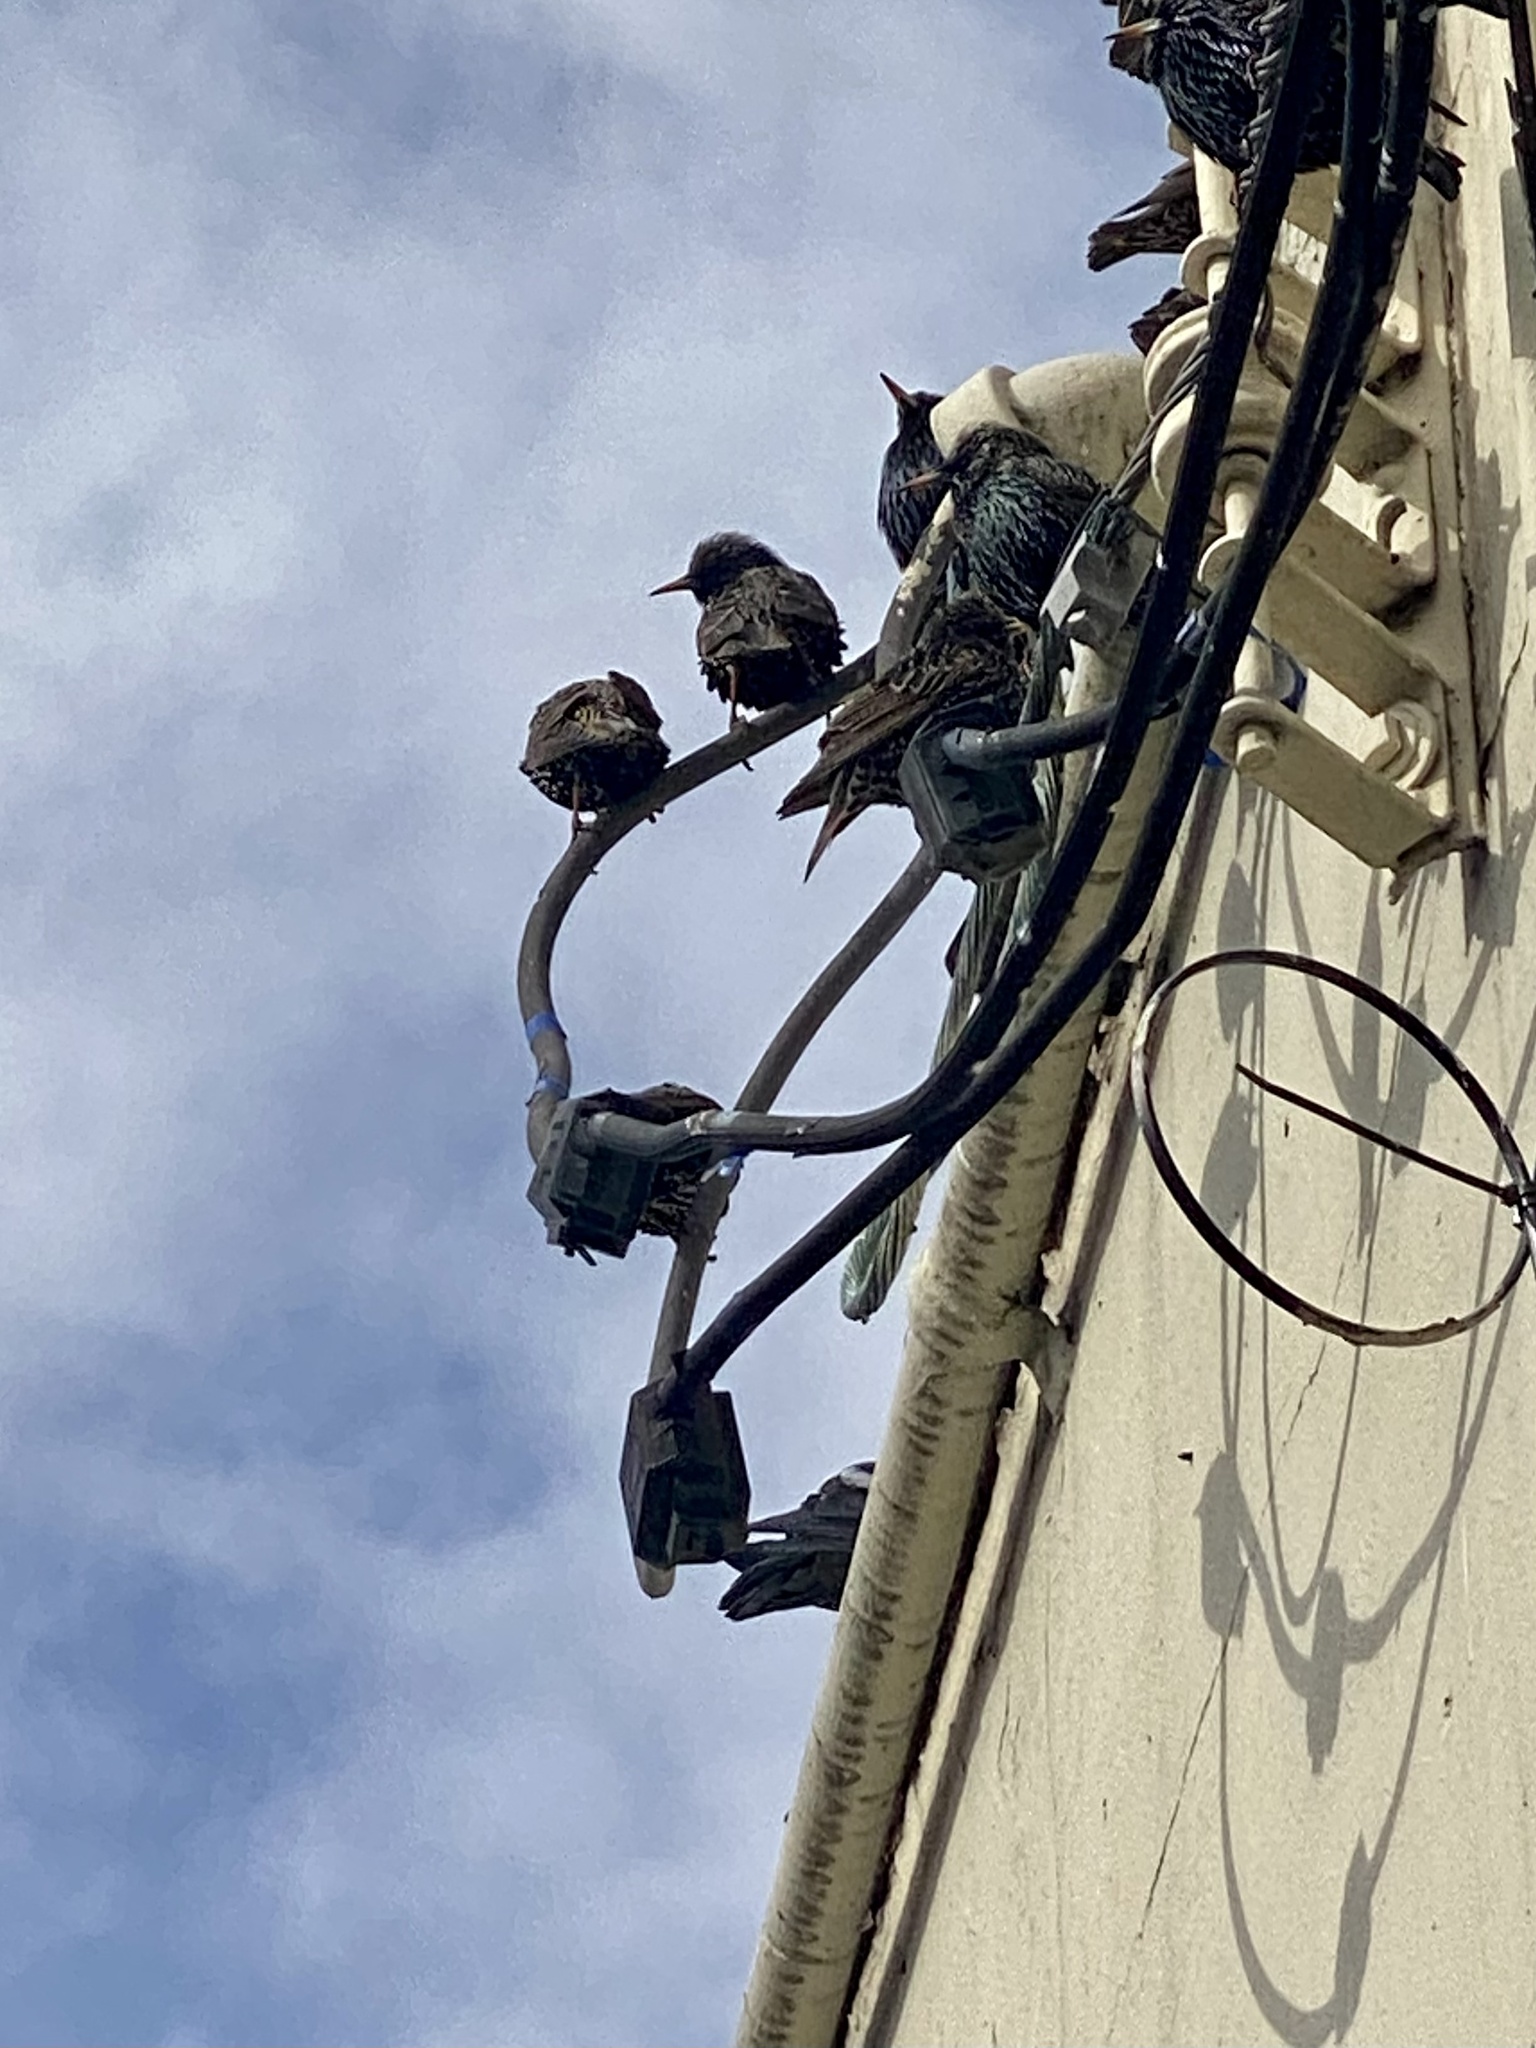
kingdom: Animalia
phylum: Chordata
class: Aves
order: Passeriformes
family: Sturnidae
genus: Sturnus
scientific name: Sturnus vulgaris
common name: Common starling
